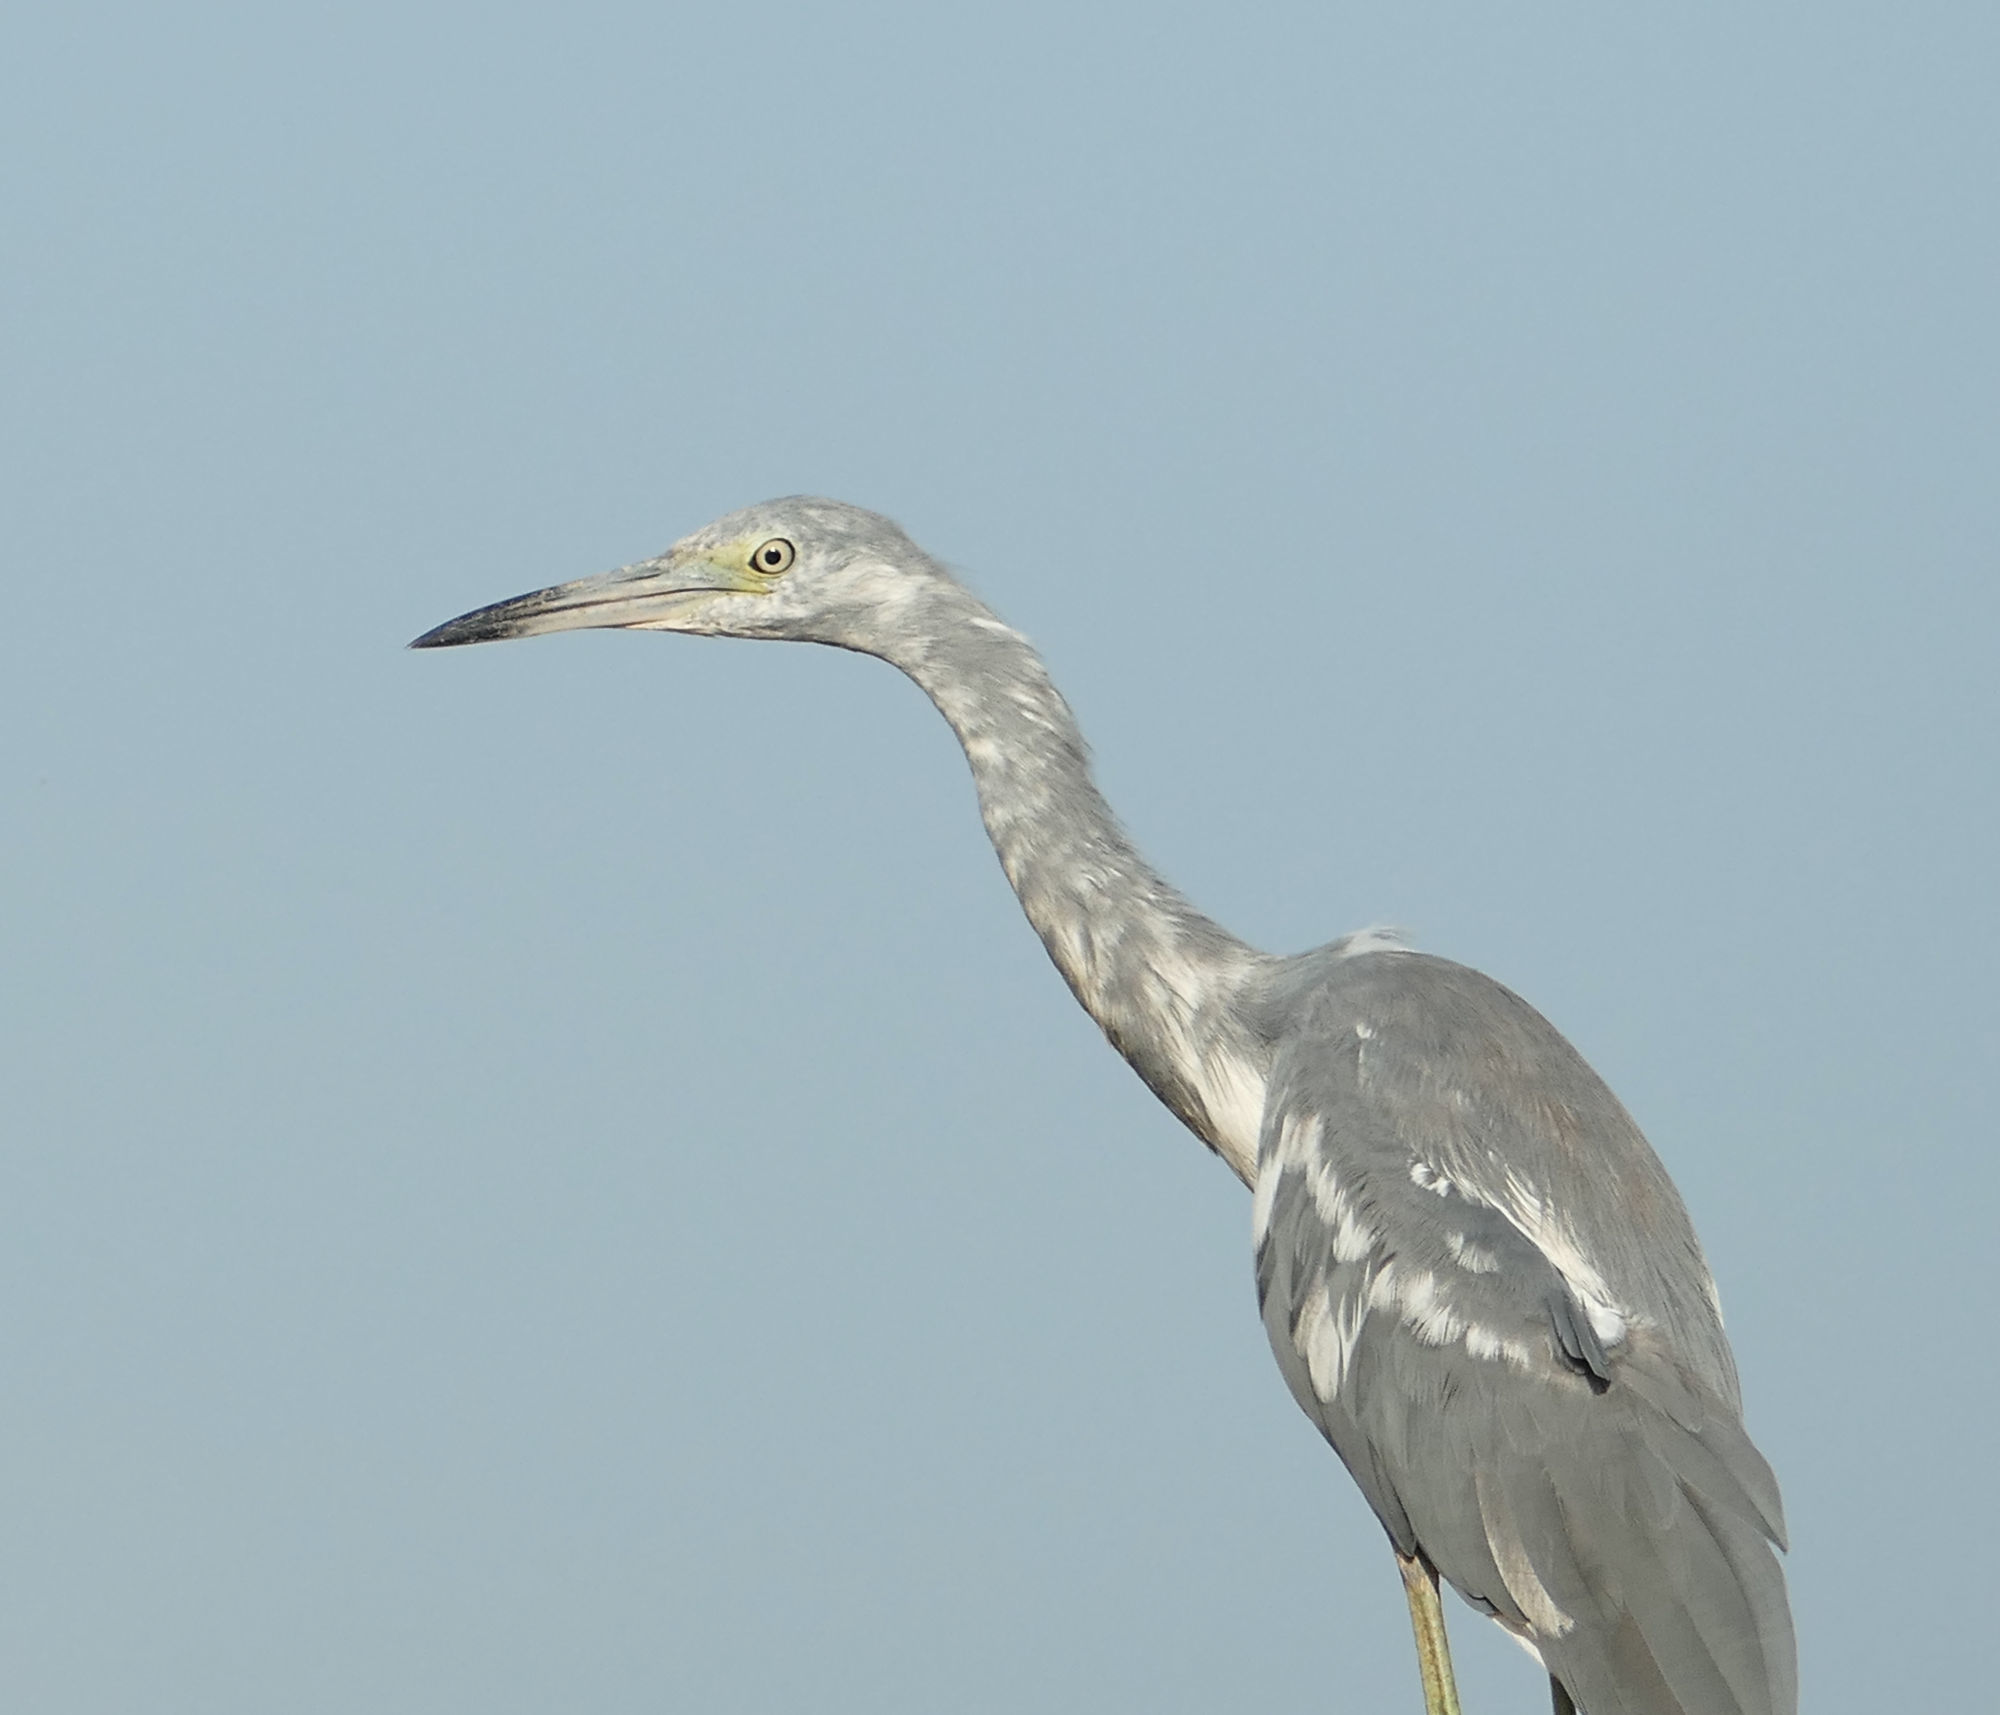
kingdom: Animalia
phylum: Chordata
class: Aves
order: Pelecaniformes
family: Ardeidae
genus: Egretta
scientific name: Egretta caerulea
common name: Little blue heron
